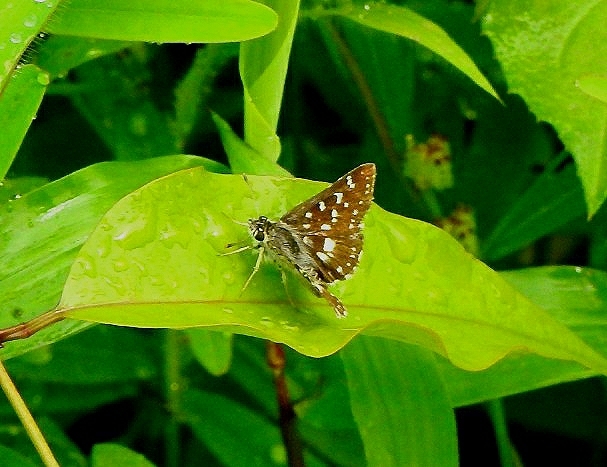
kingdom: Animalia
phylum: Arthropoda
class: Insecta
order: Lepidoptera
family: Hesperiidae
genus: Spialia
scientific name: Spialia galba
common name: Indian skipper
